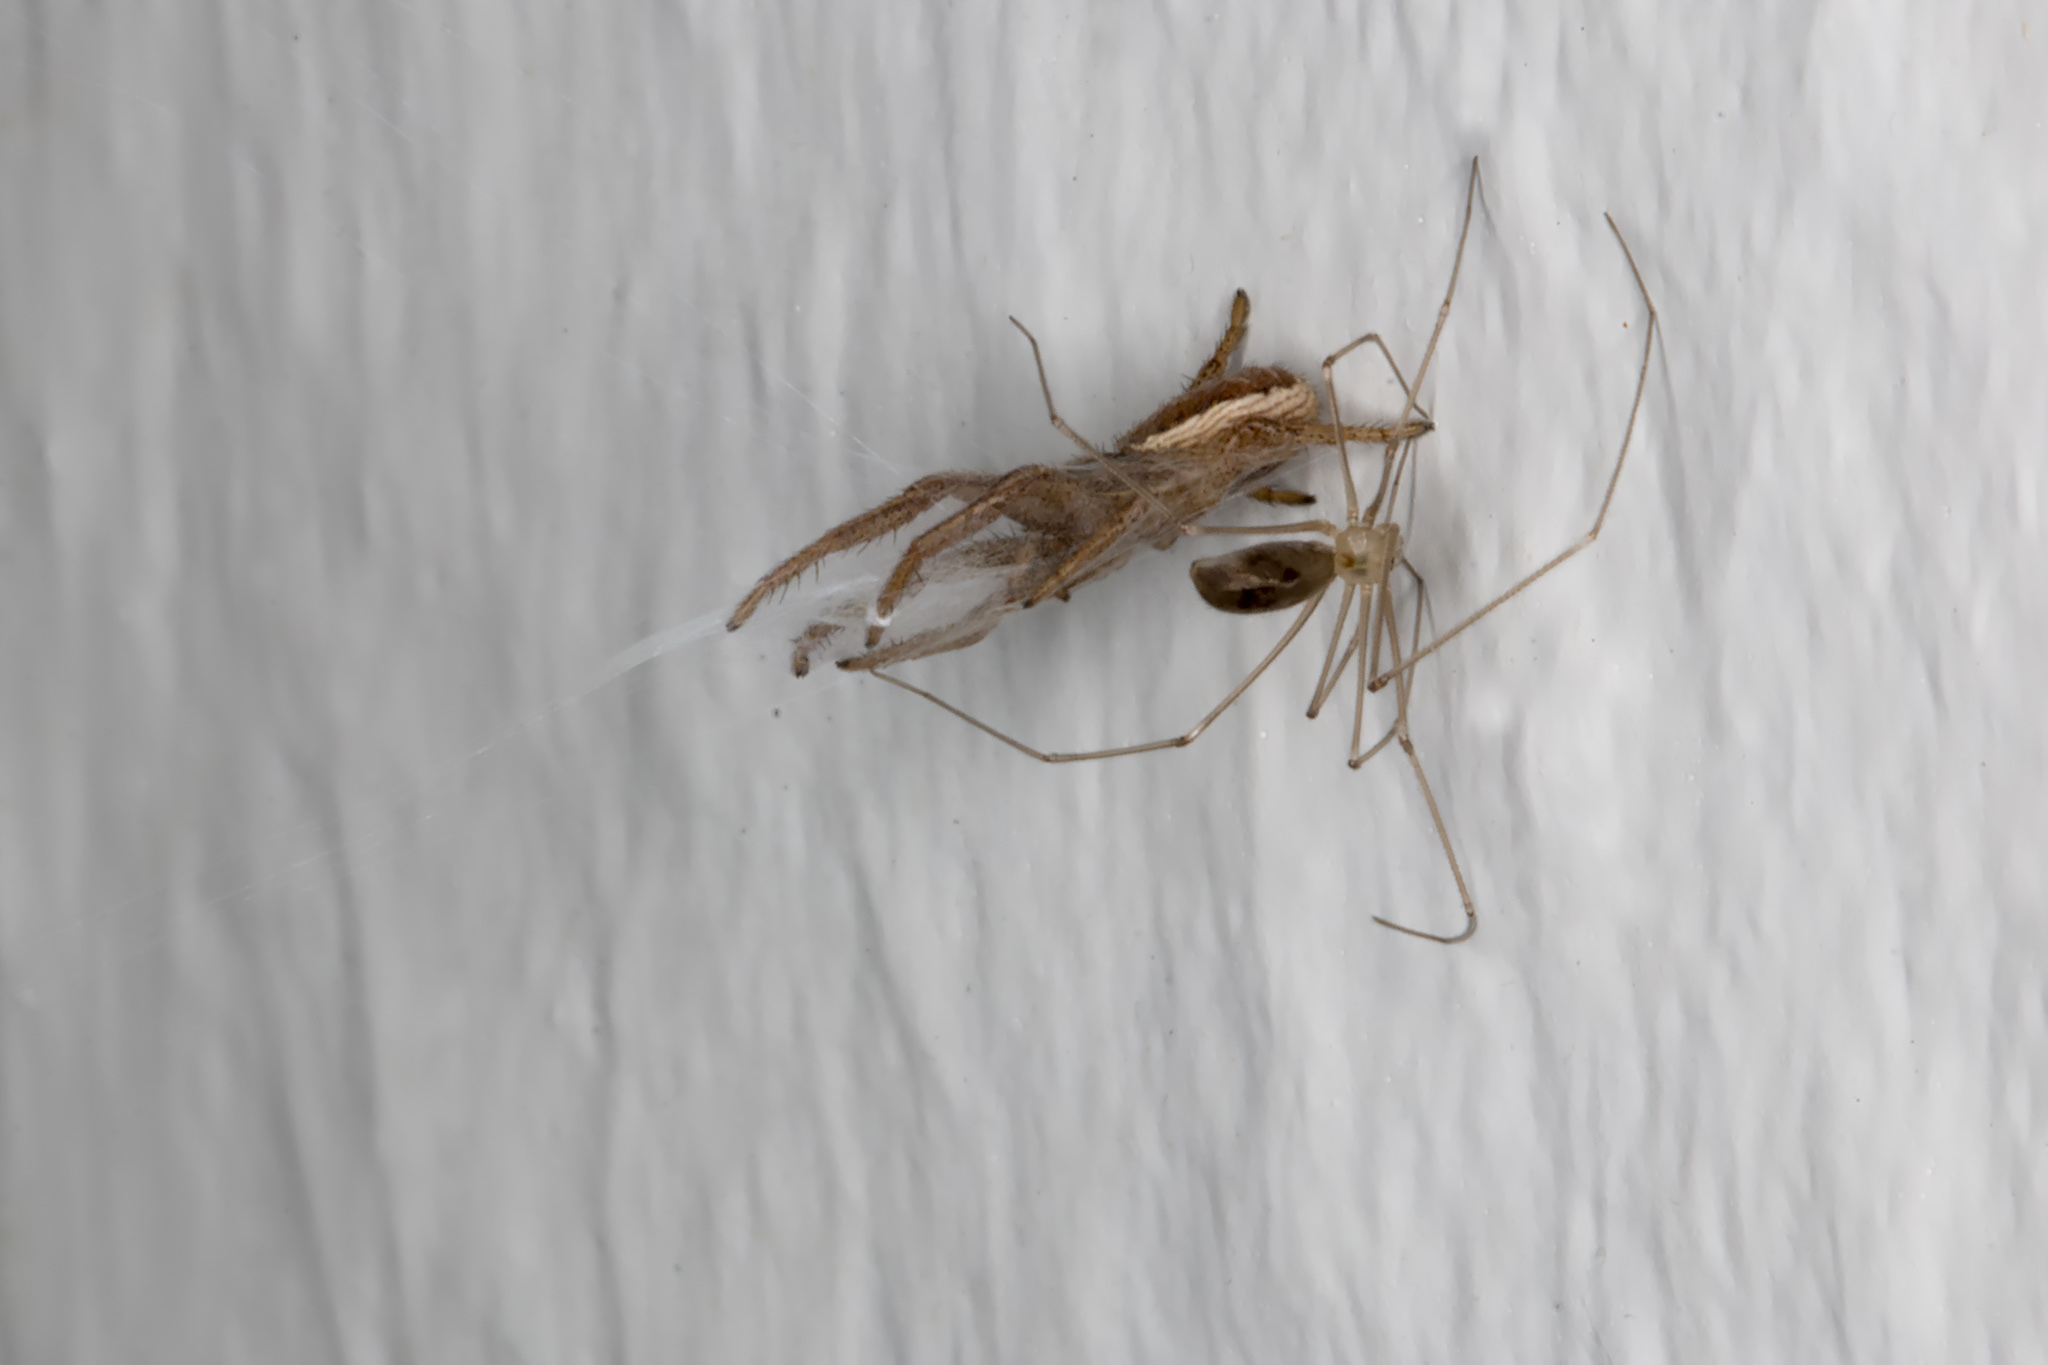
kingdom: Animalia
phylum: Arthropoda
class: Arachnida
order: Araneae
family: Thomisidae
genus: Xysticus
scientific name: Xysticus ulmi
